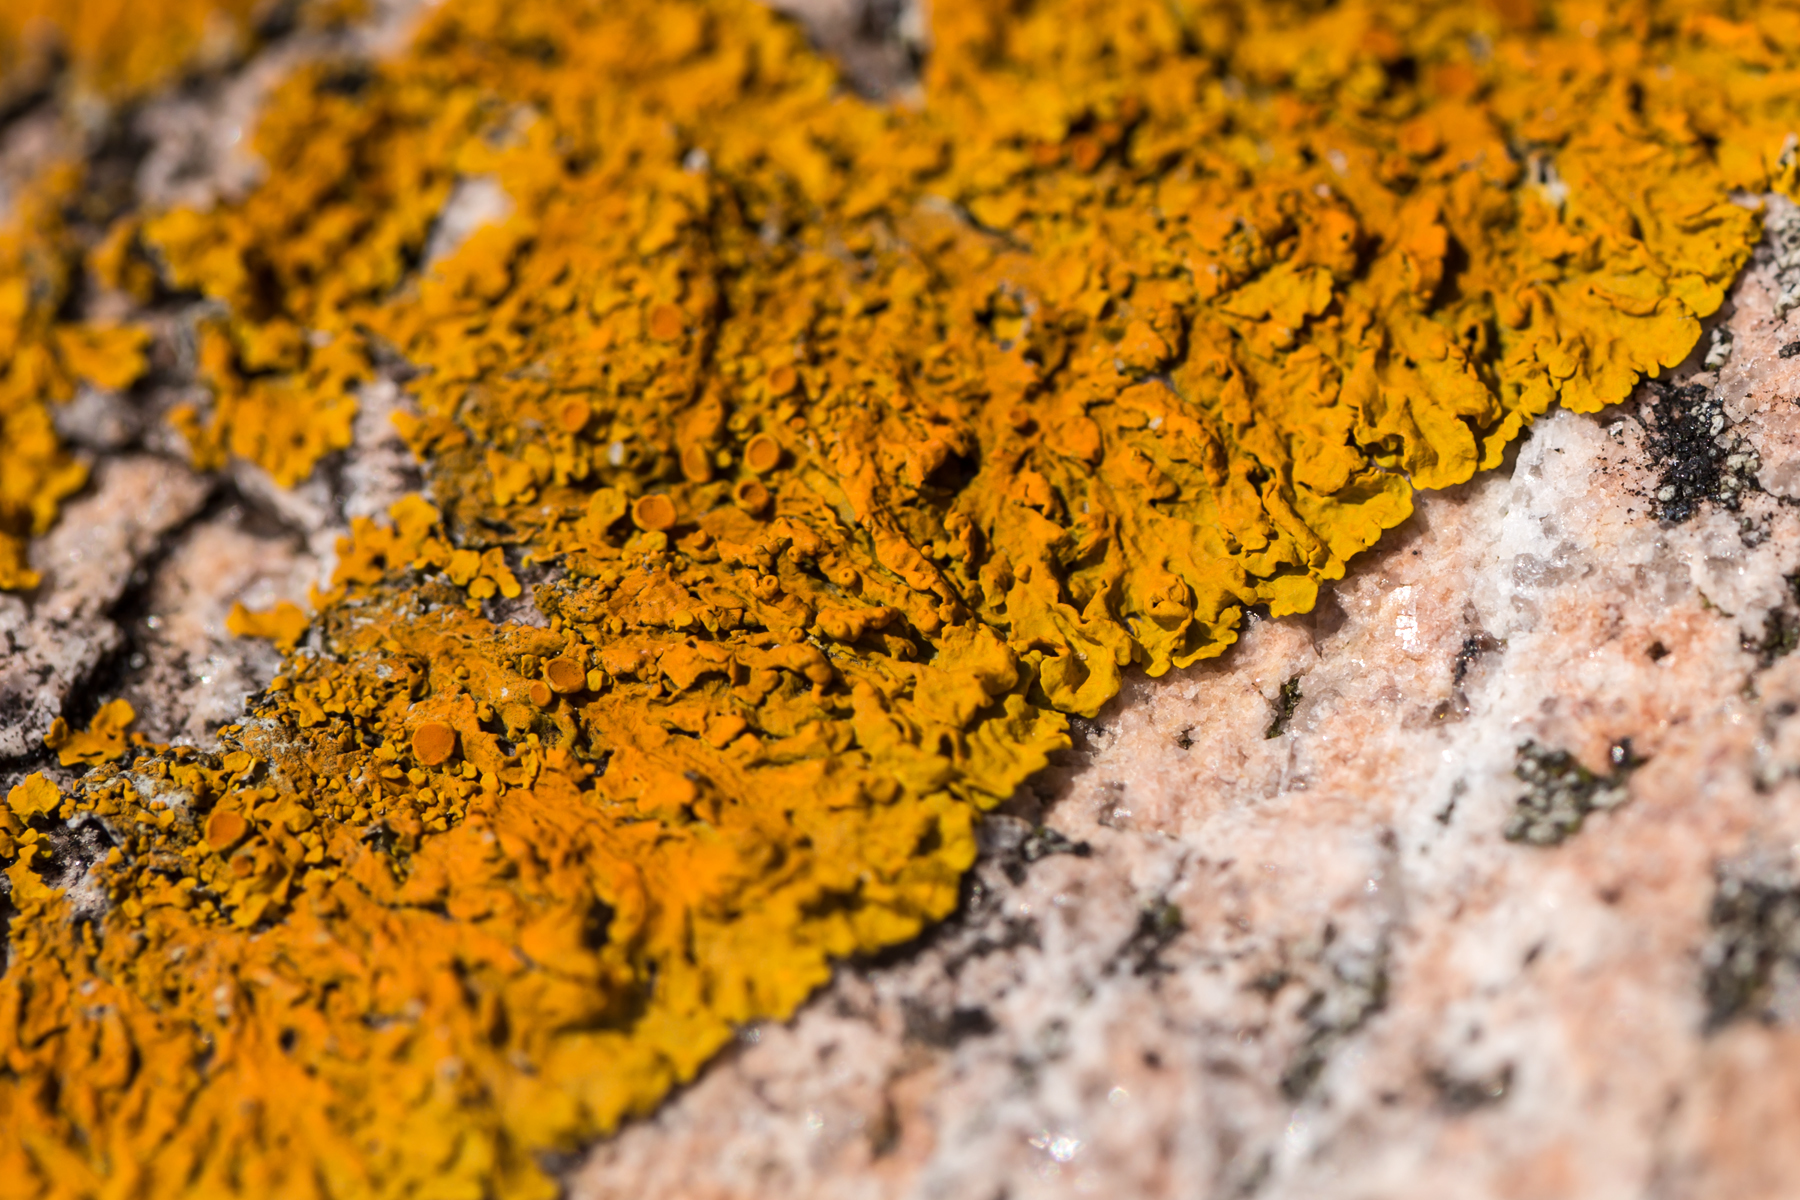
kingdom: Fungi
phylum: Ascomycota
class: Lecanoromycetes
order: Teloschistales
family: Teloschistaceae
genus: Xanthoria
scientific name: Xanthoria parietina
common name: Common orange lichen
